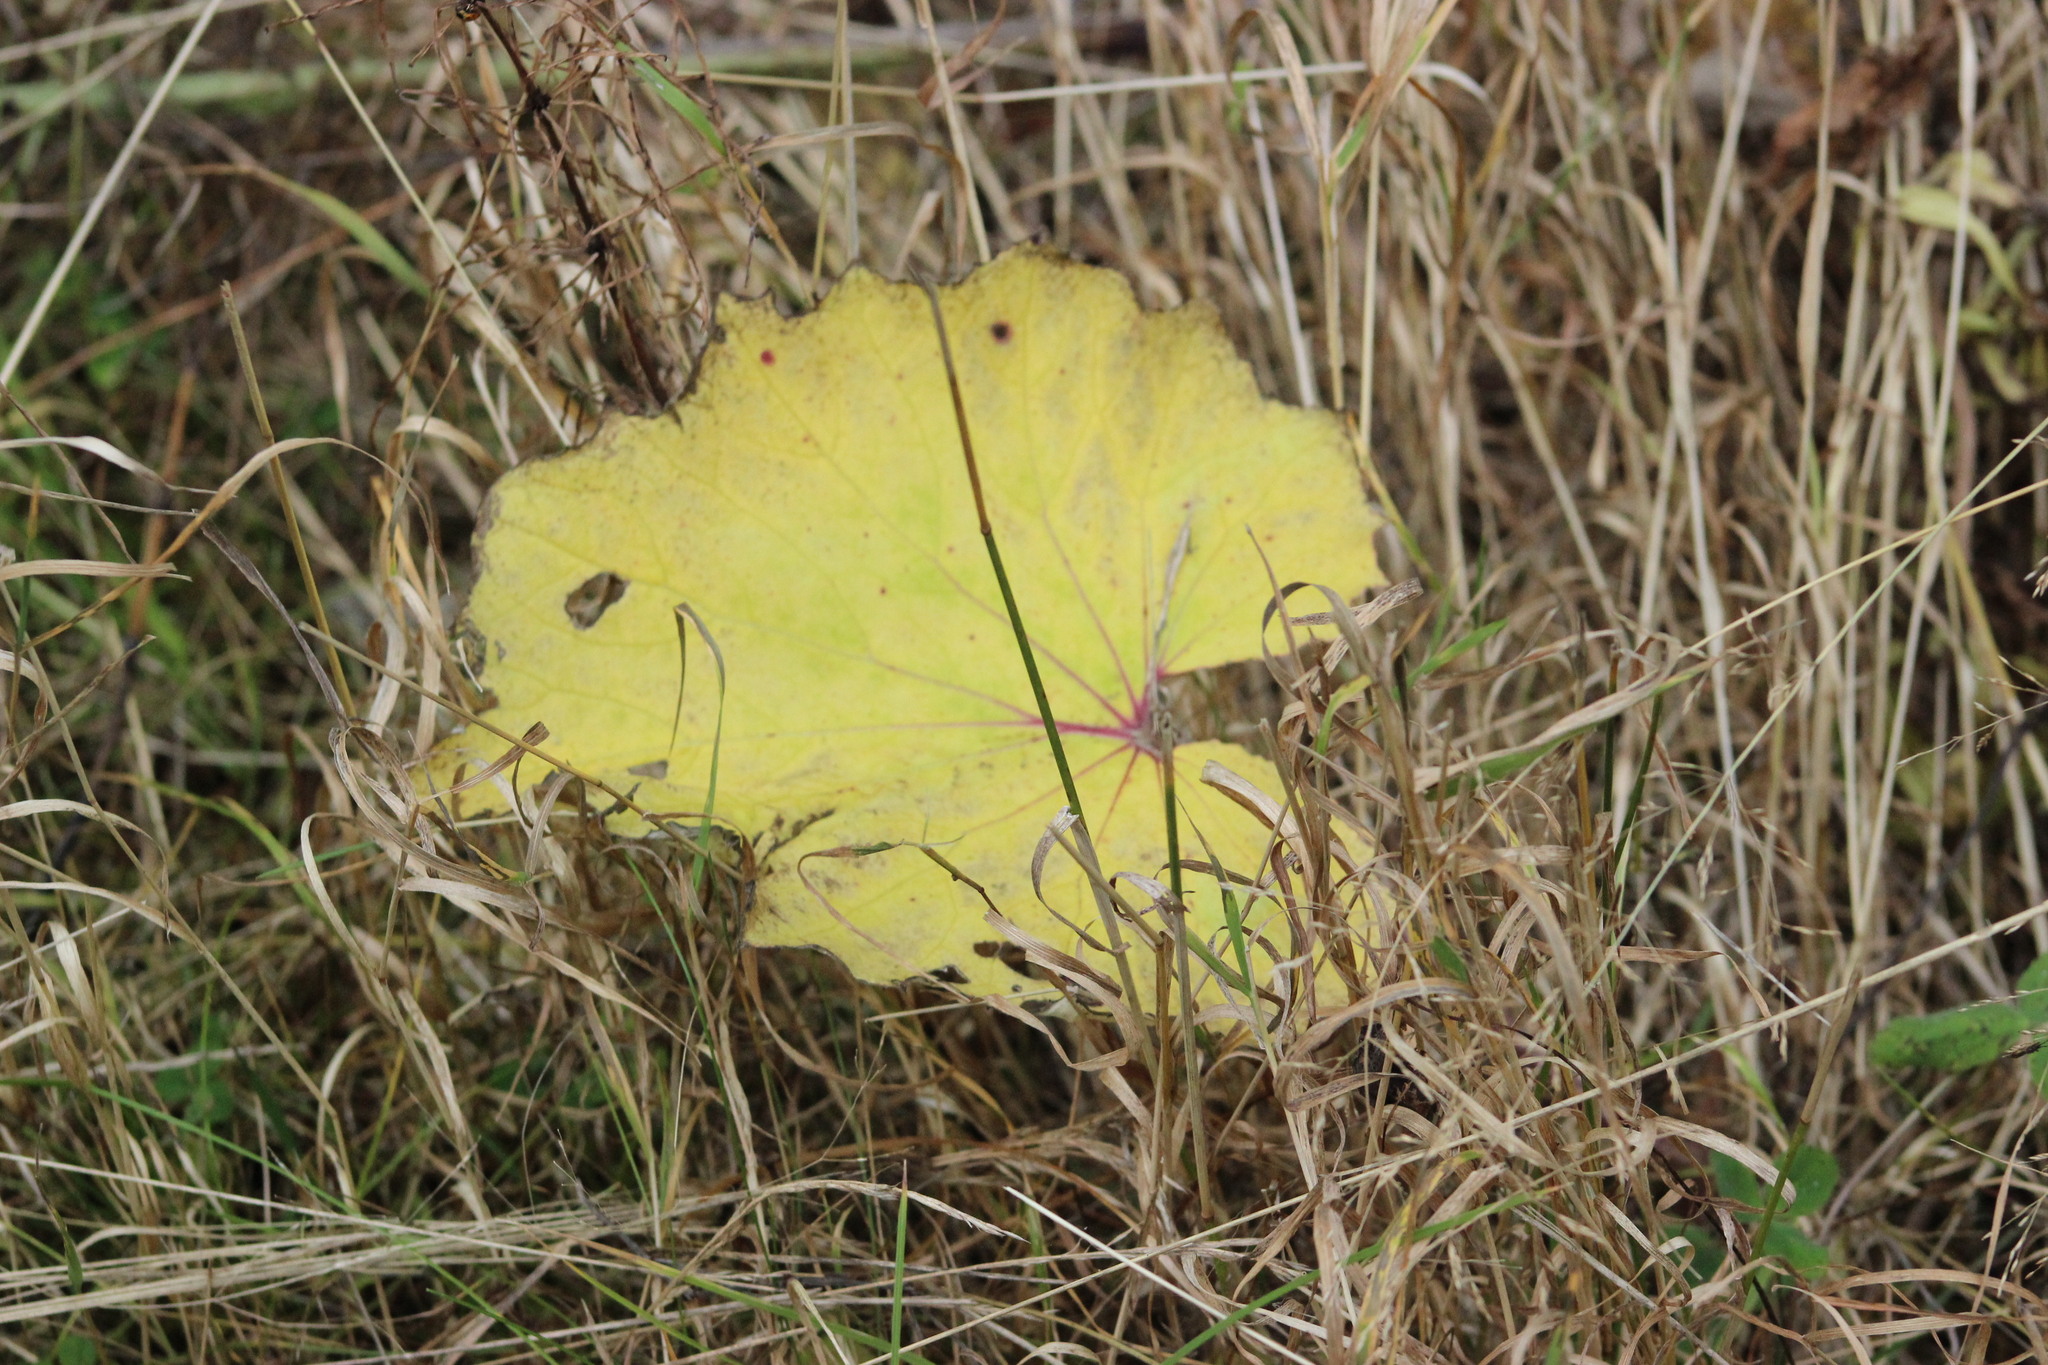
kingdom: Plantae
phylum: Tracheophyta
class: Magnoliopsida
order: Asterales
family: Asteraceae
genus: Tussilago
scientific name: Tussilago farfara
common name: Coltsfoot
